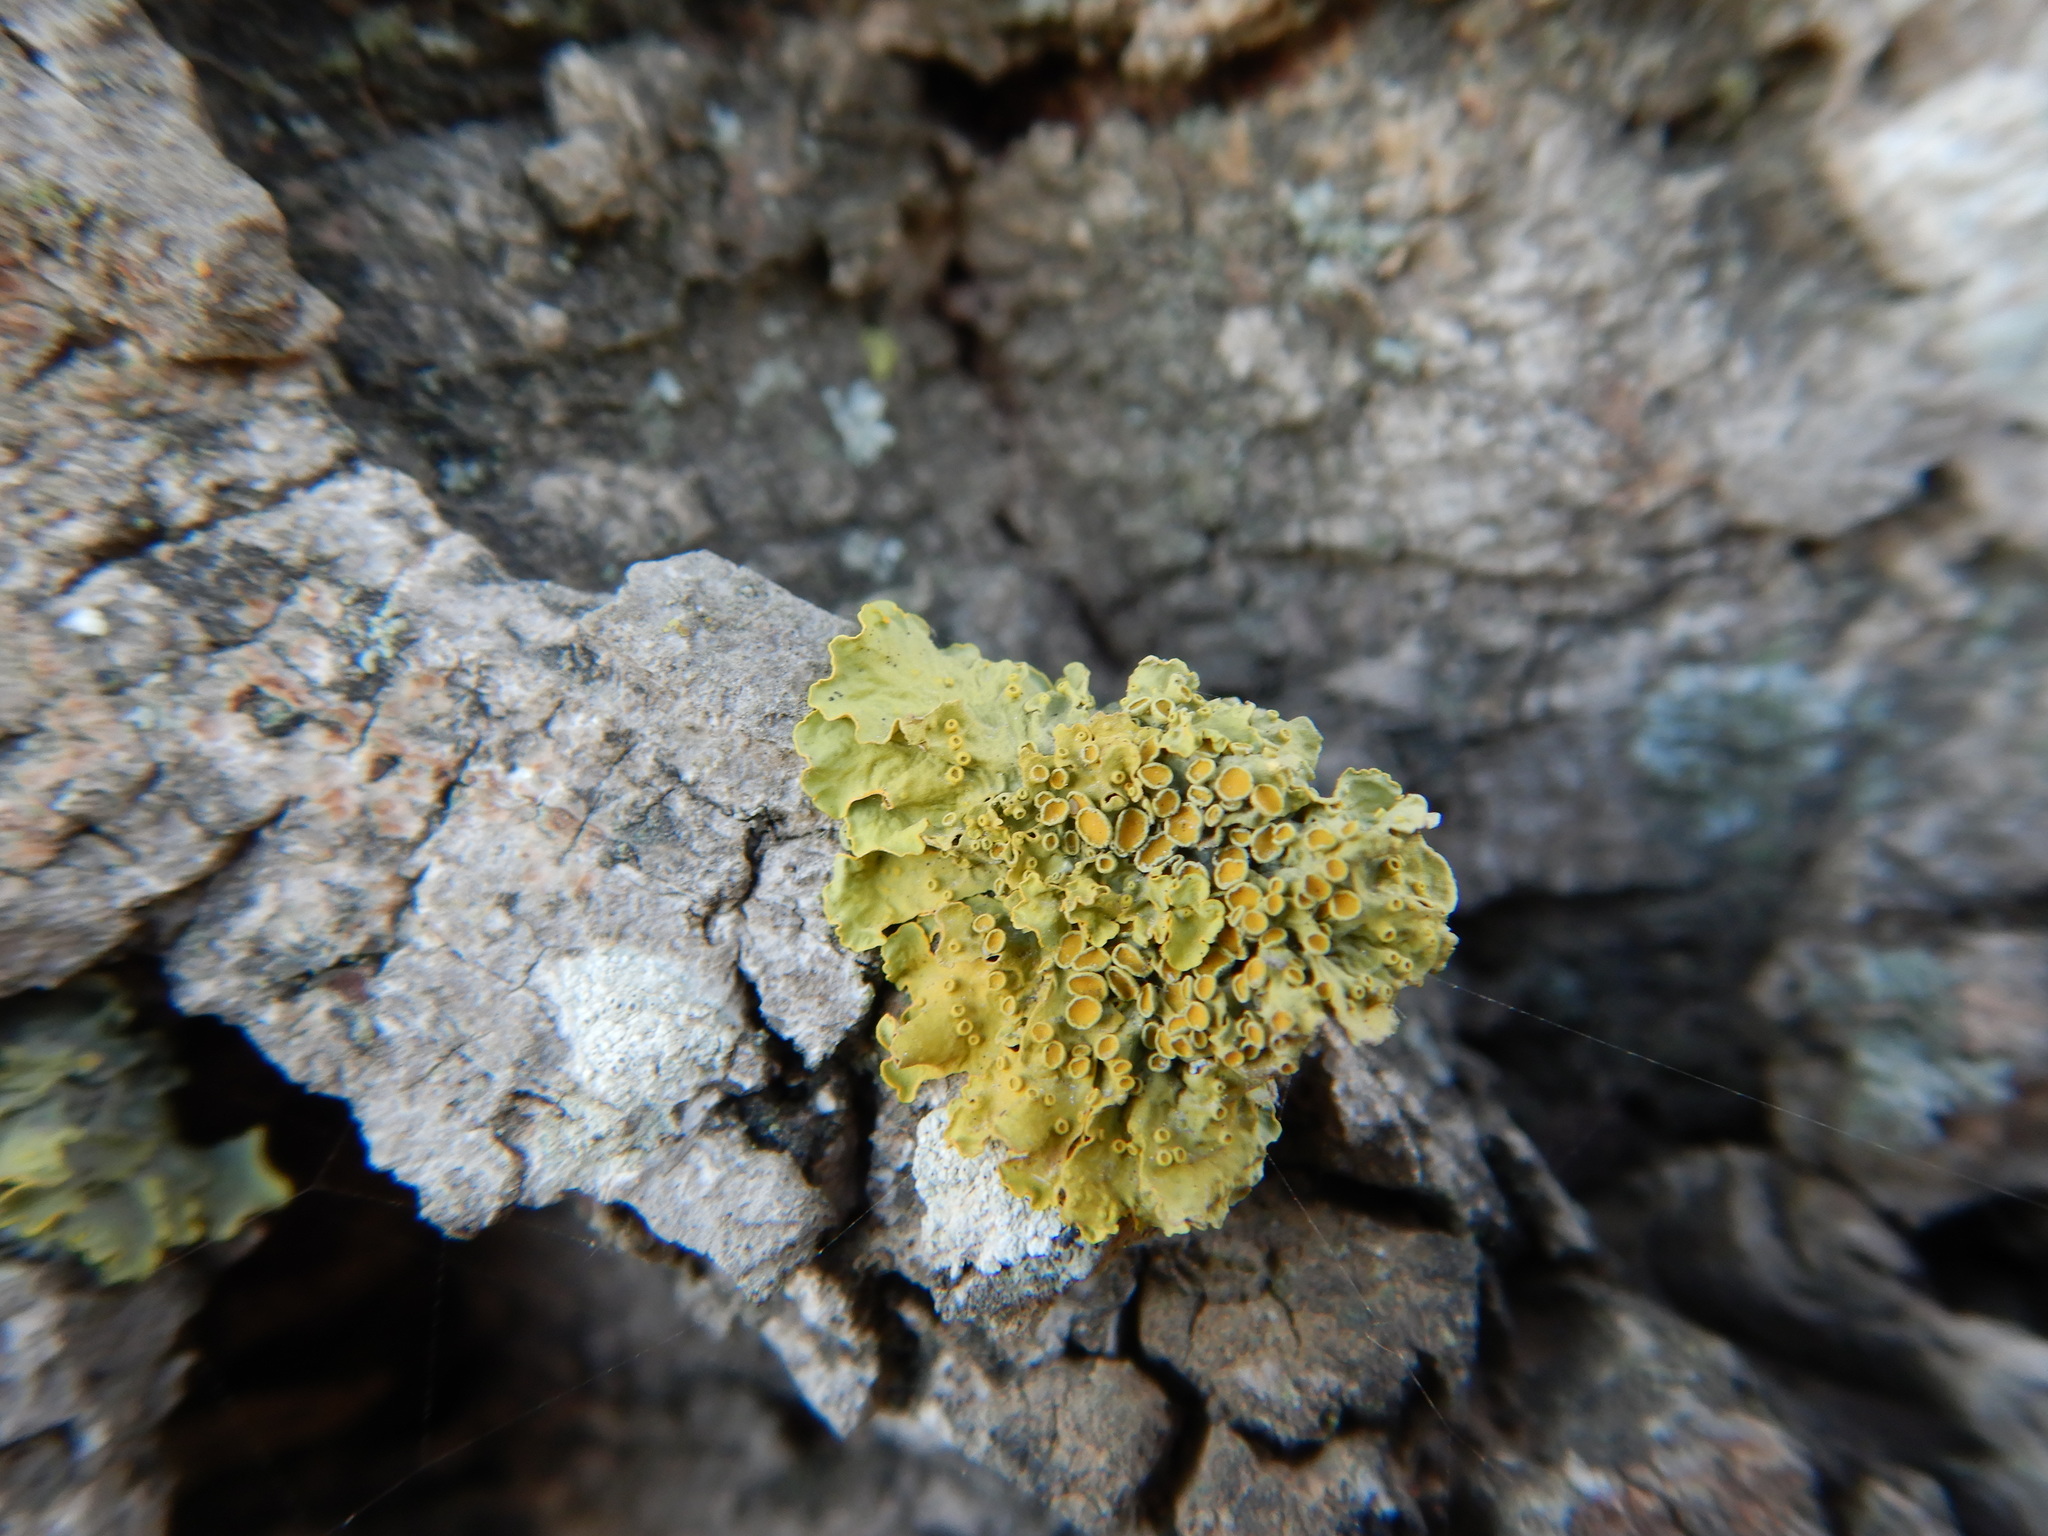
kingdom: Fungi
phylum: Ascomycota
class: Lecanoromycetes
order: Teloschistales
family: Teloschistaceae
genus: Xanthoria
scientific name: Xanthoria parietina
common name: Common orange lichen
